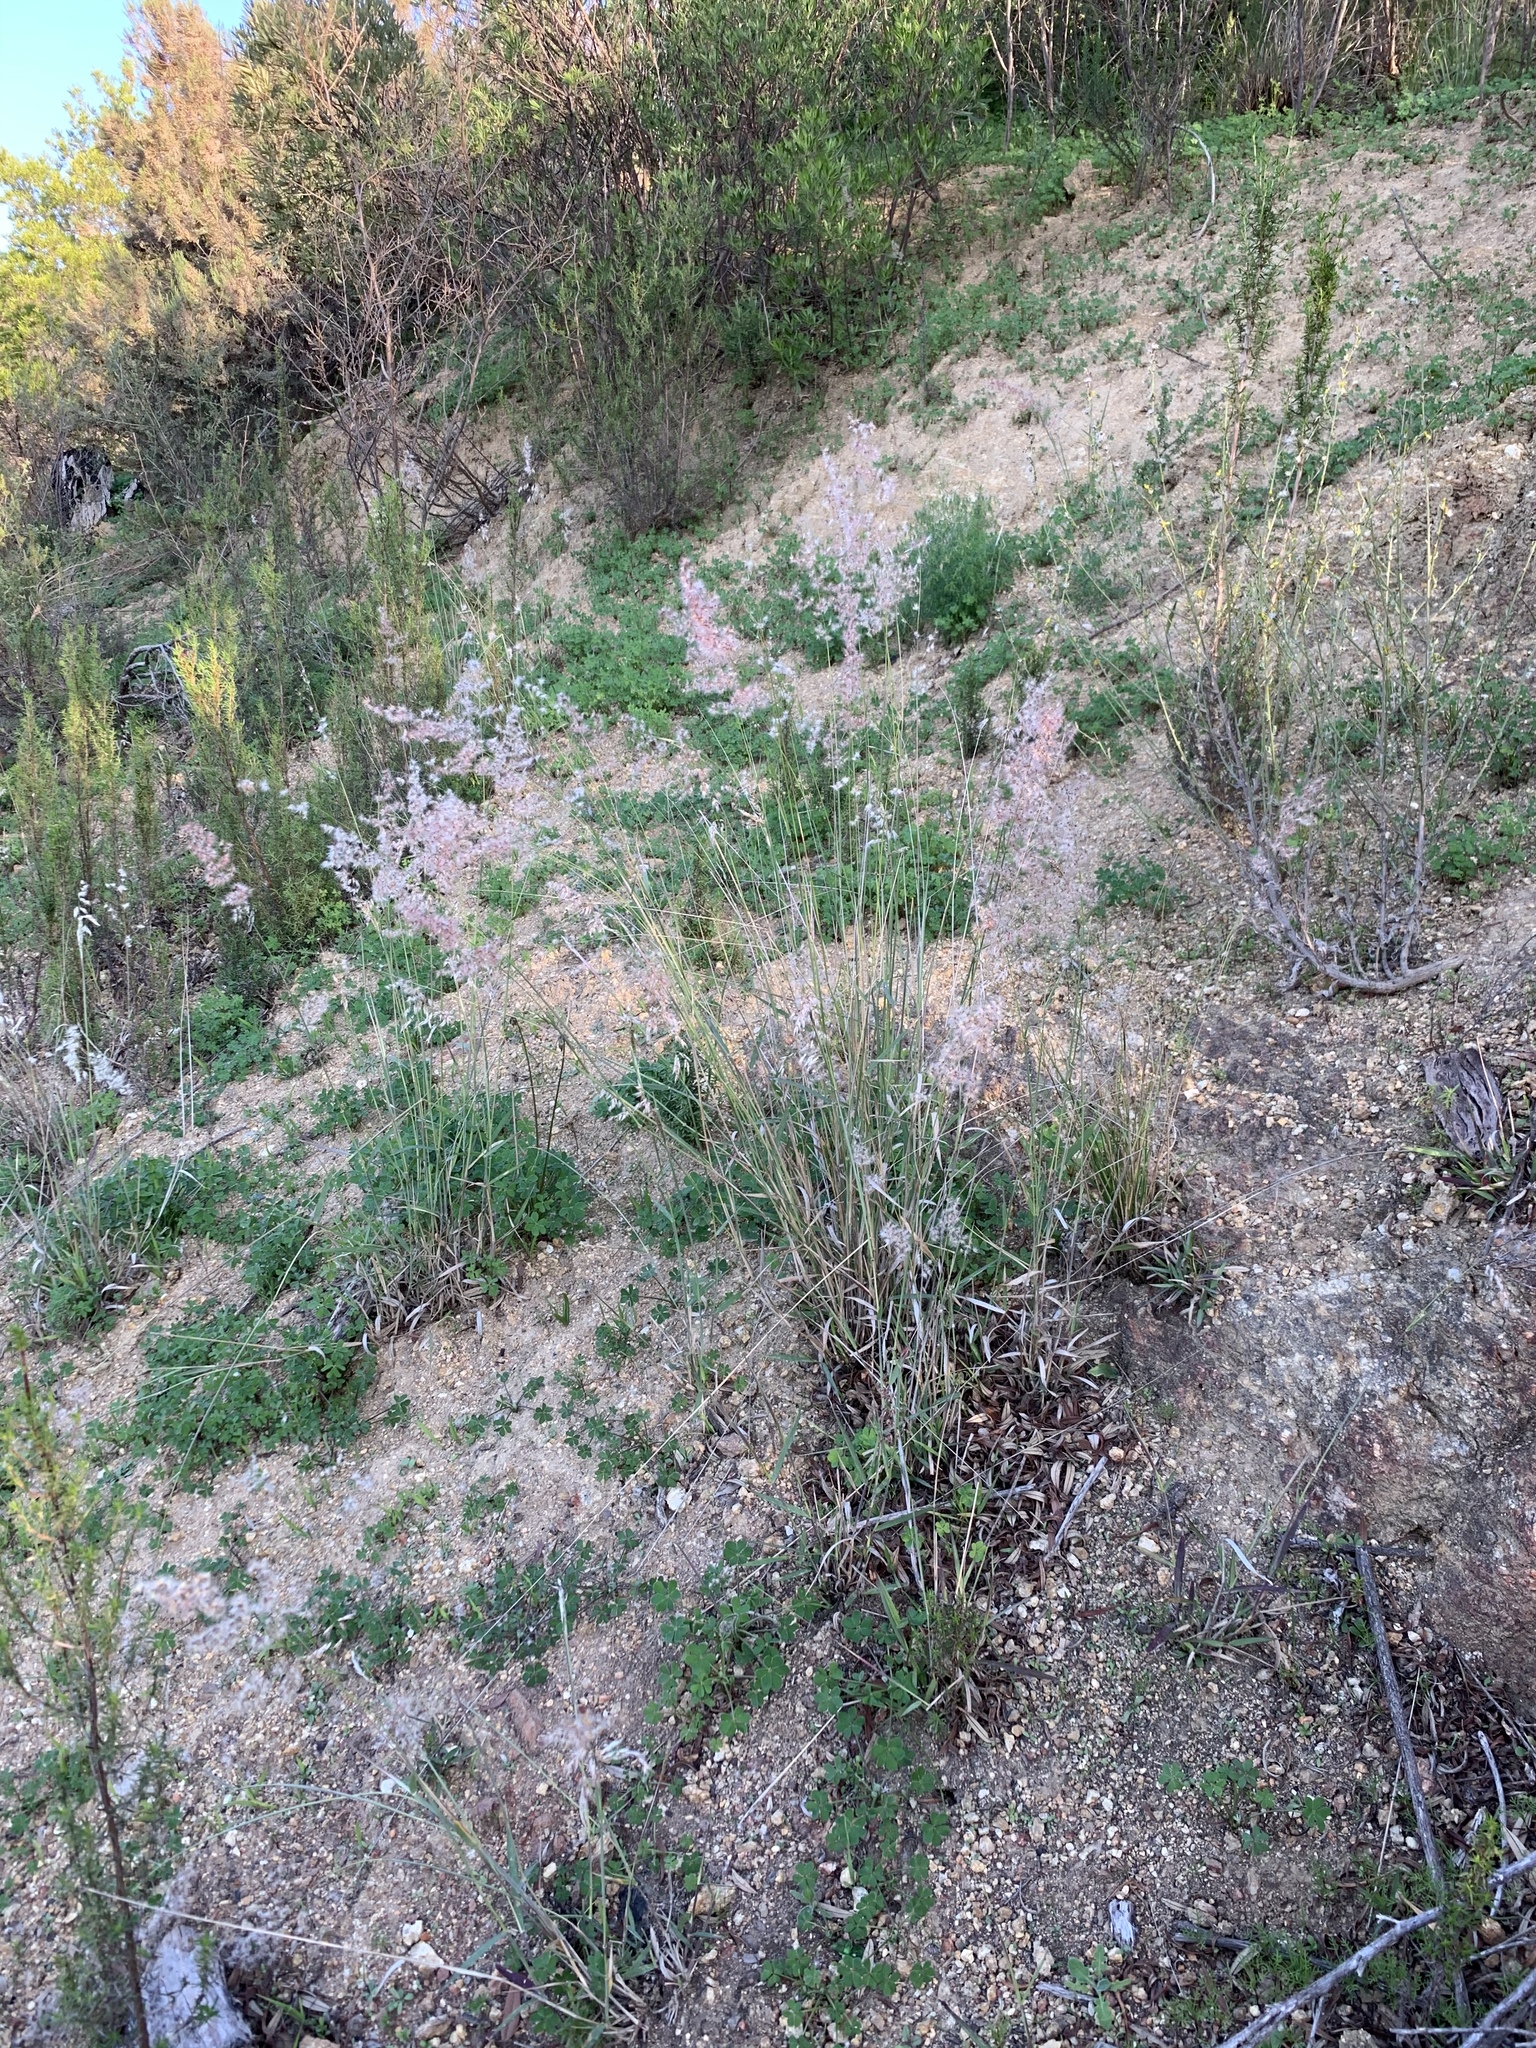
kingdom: Plantae
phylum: Tracheophyta
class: Liliopsida
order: Poales
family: Poaceae
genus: Melinis
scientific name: Melinis repens
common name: Rose natal grass
